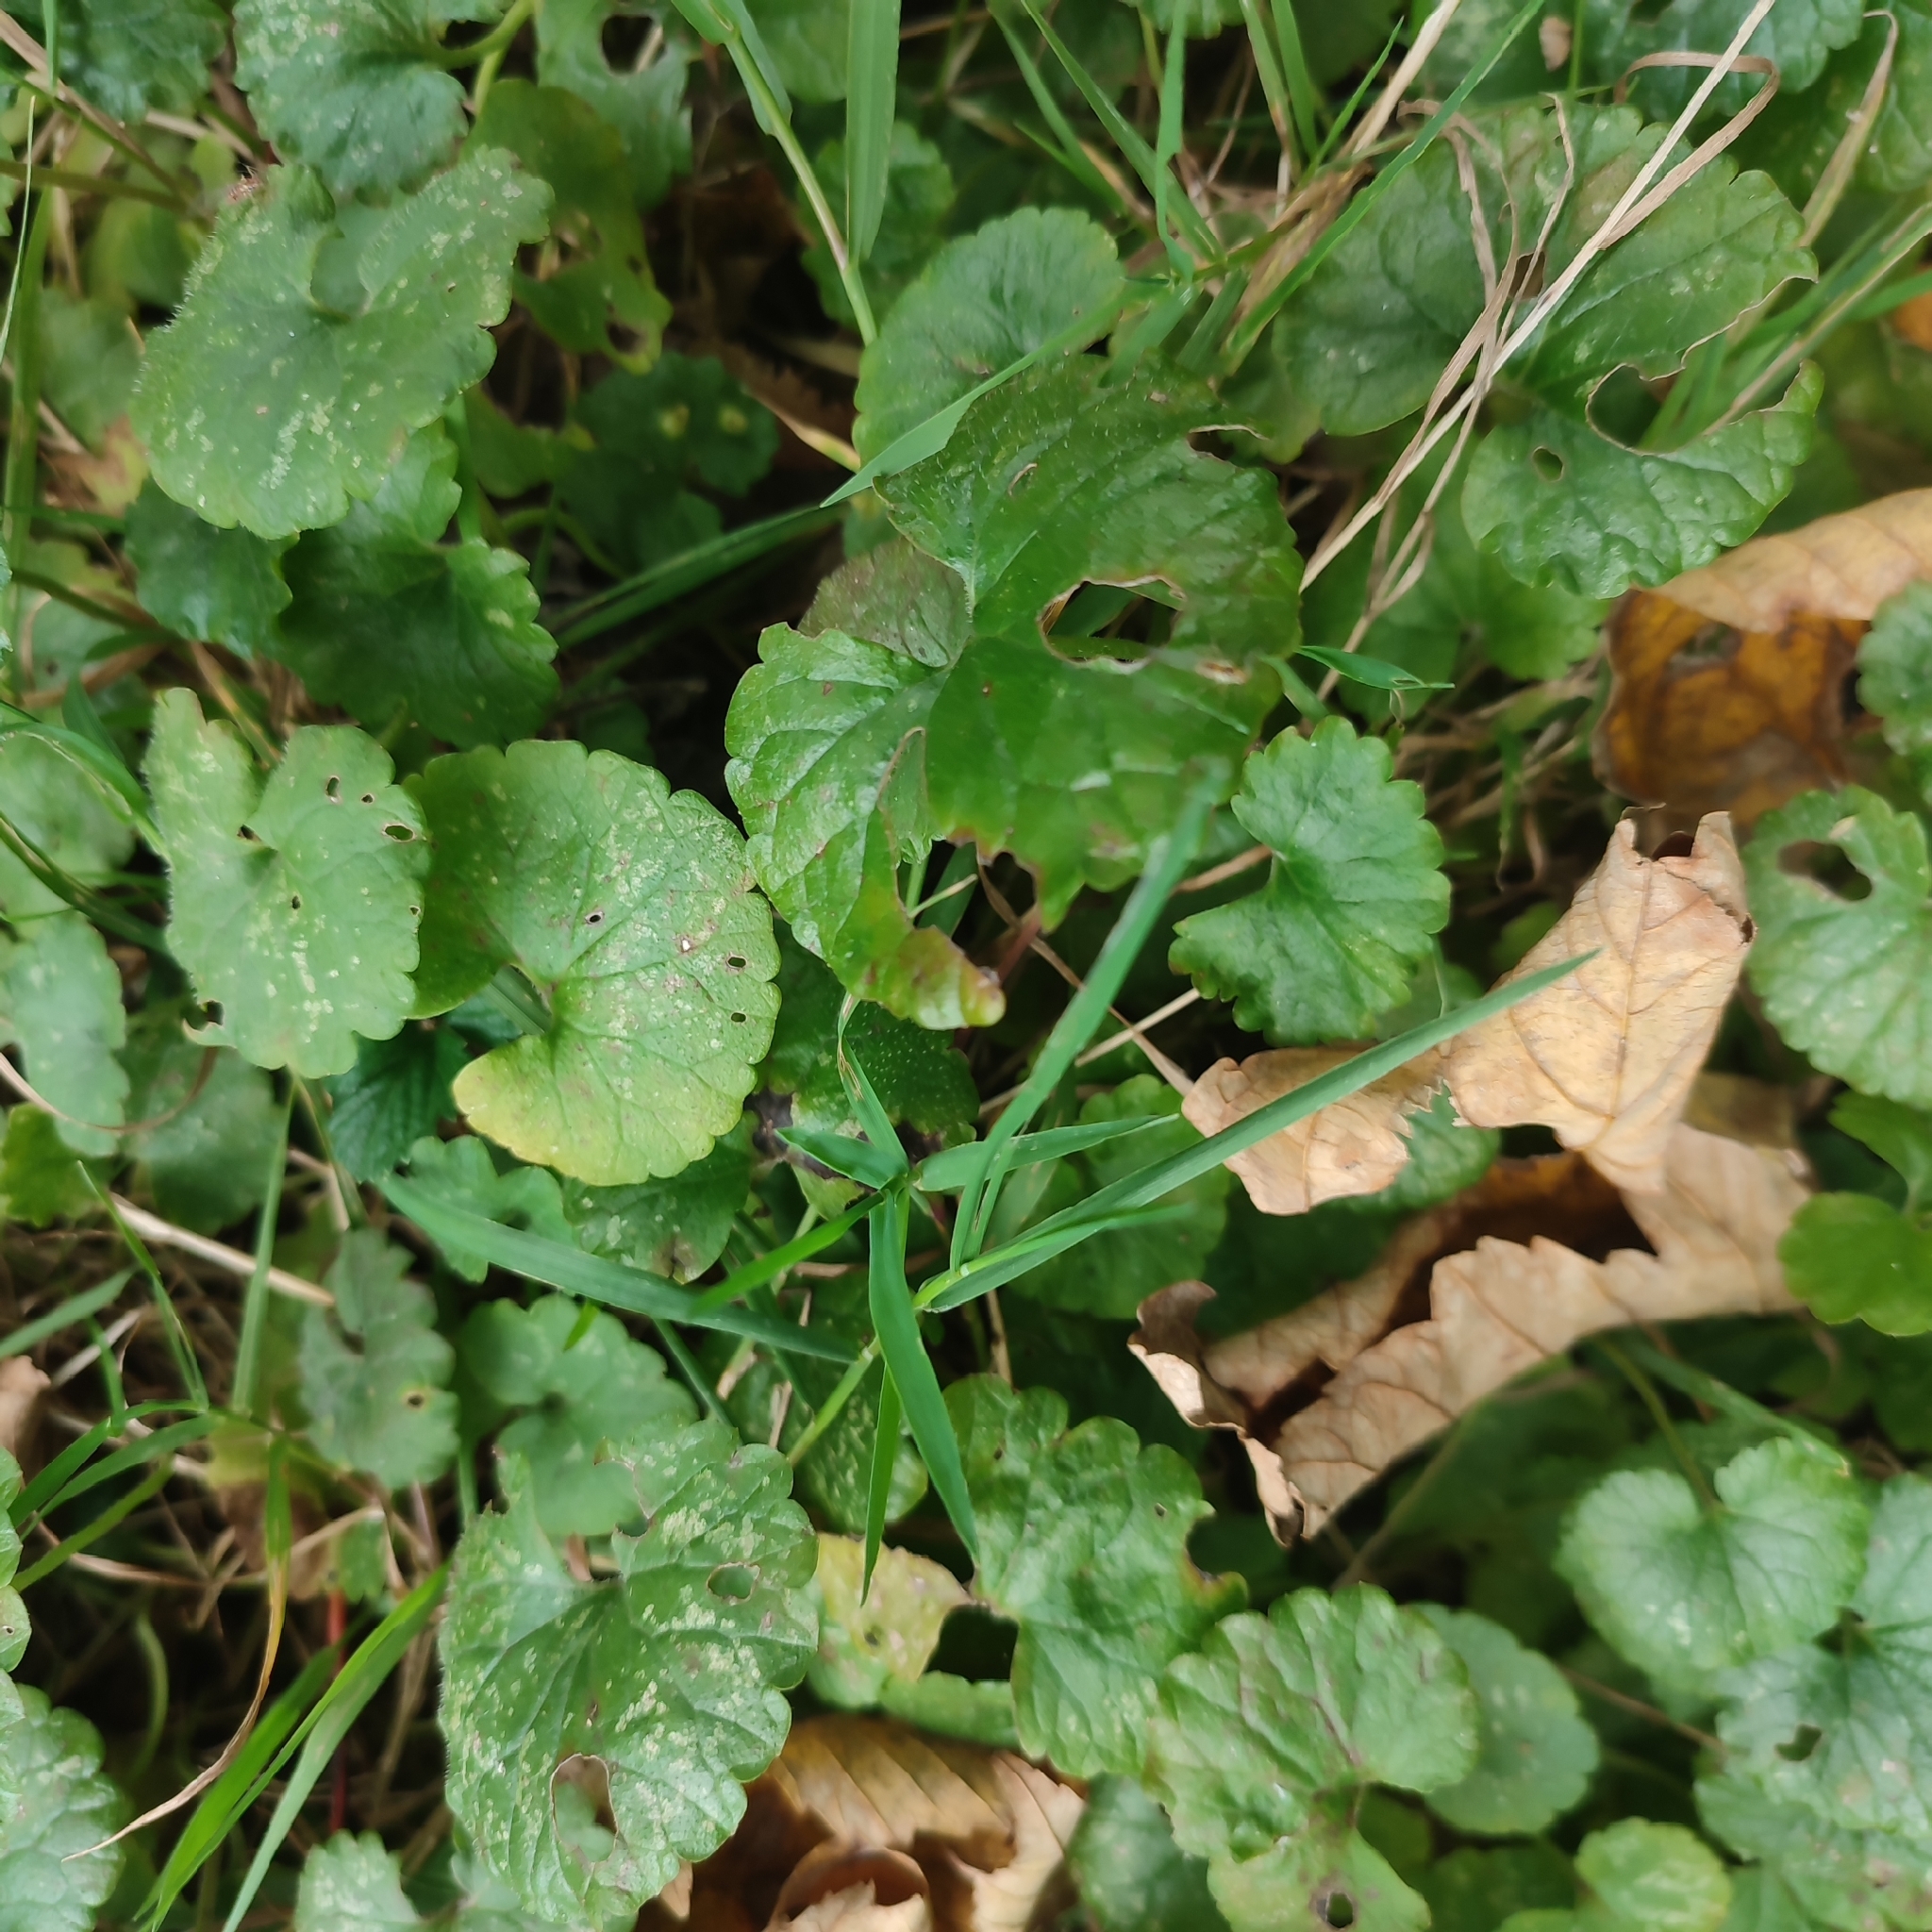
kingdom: Plantae
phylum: Tracheophyta
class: Magnoliopsida
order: Lamiales
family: Lamiaceae
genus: Glechoma
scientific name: Glechoma hederacea
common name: Ground ivy
